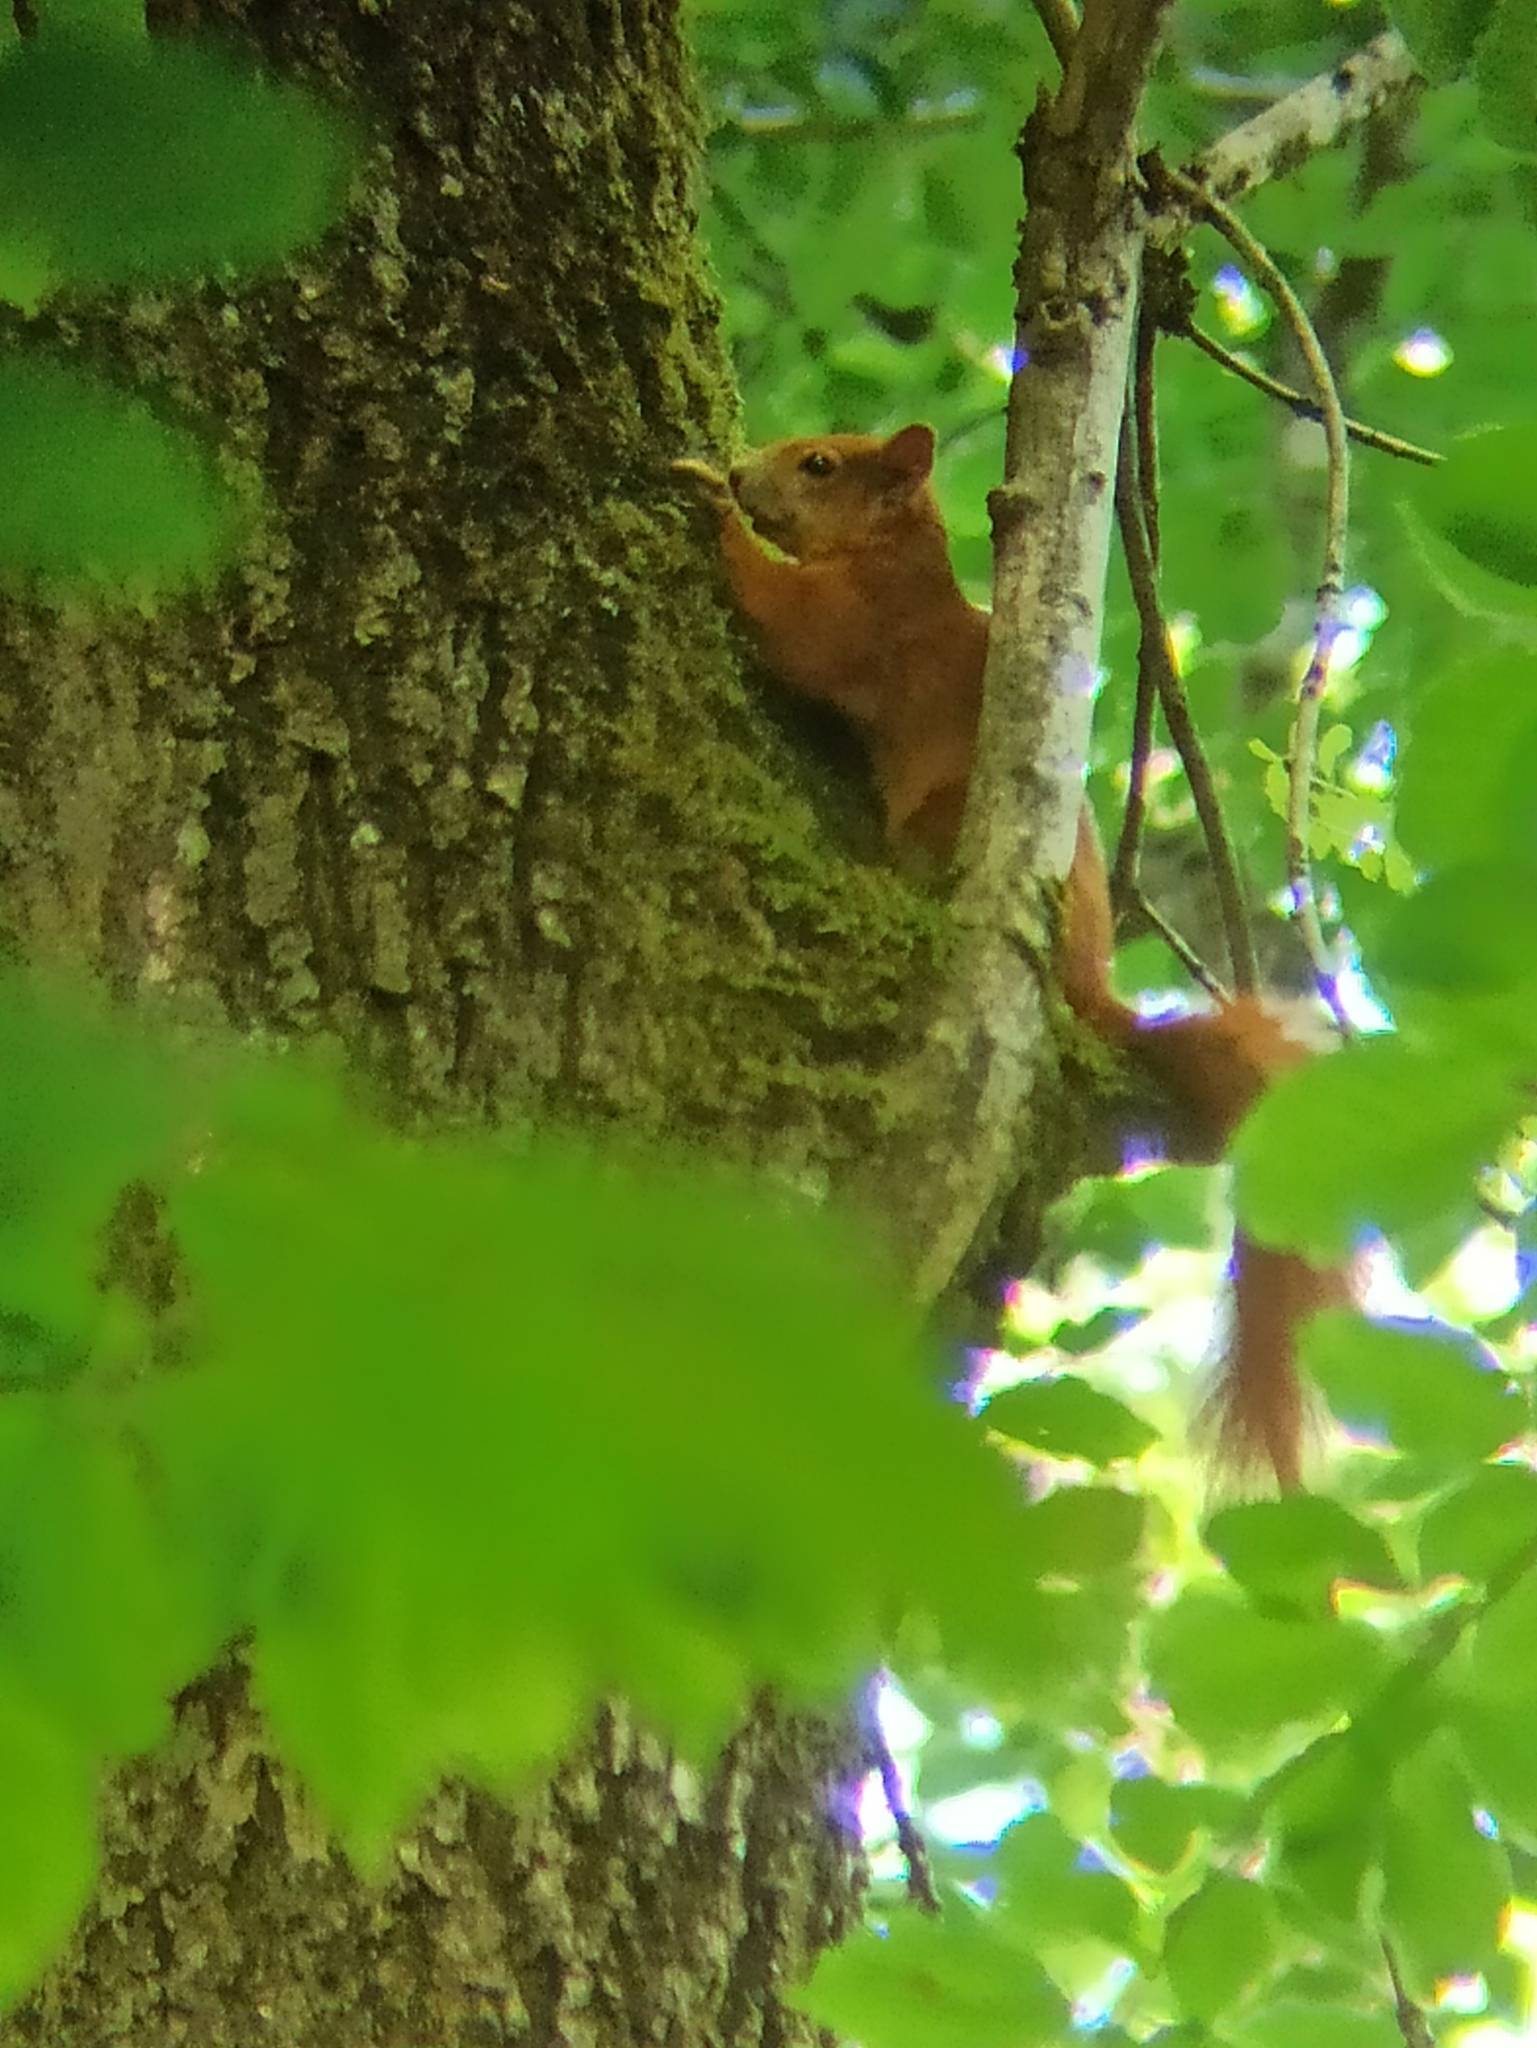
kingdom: Animalia
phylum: Chordata
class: Mammalia
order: Rodentia
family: Sciuridae
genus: Sciurus
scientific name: Sciurus vulgaris
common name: Eurasian red squirrel
